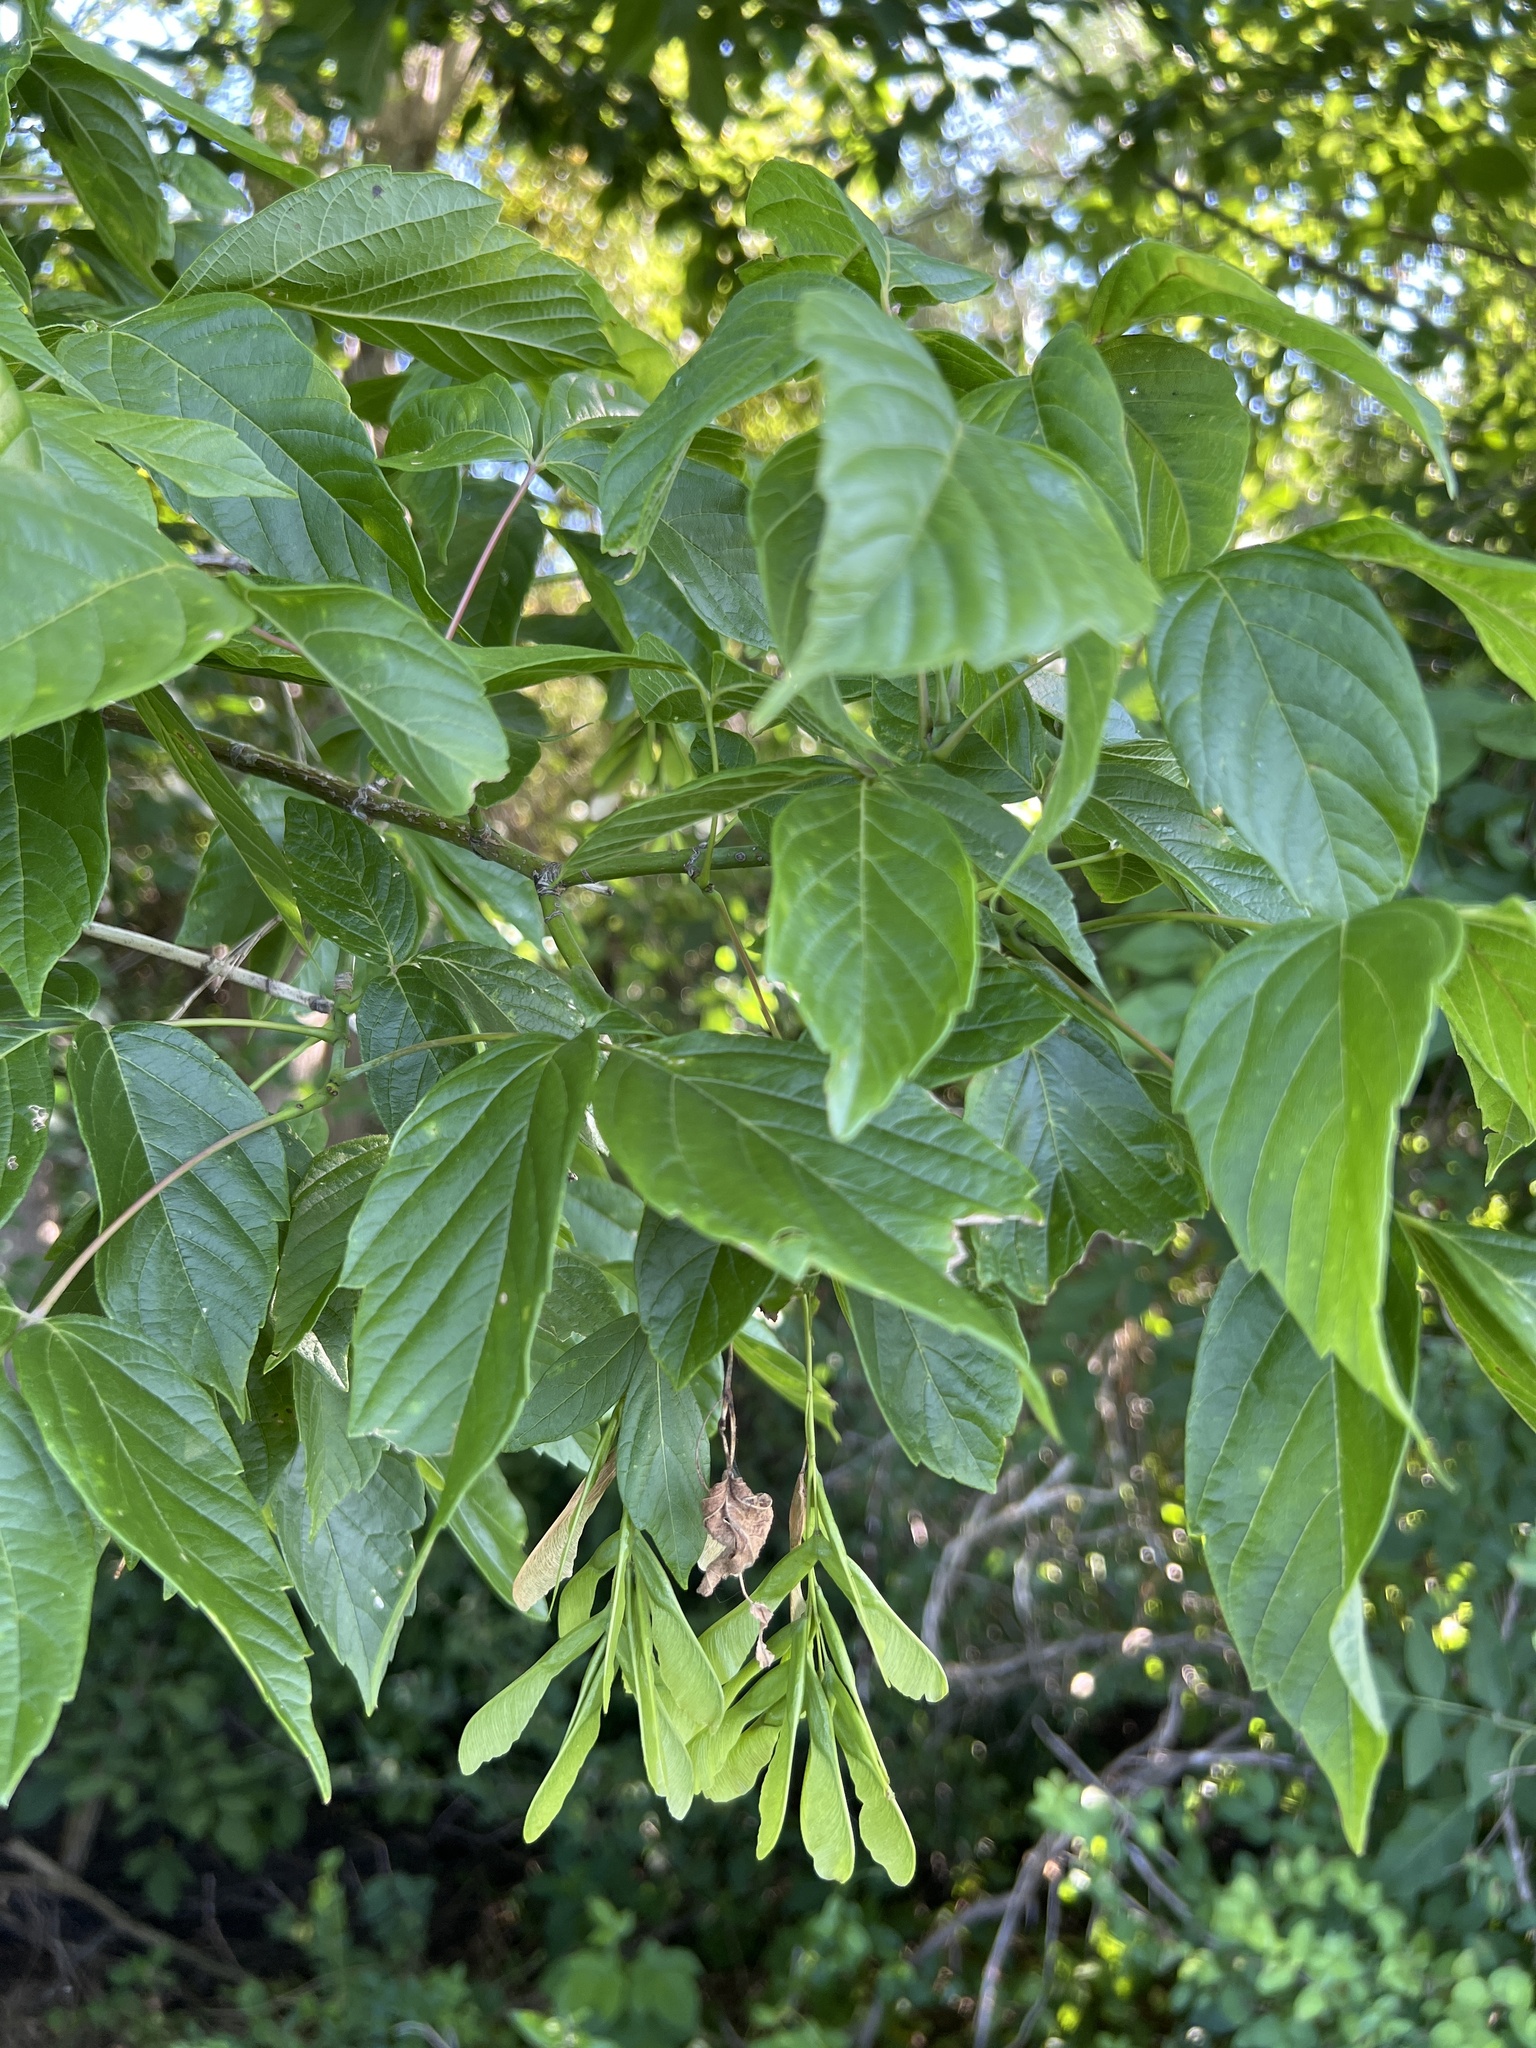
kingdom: Plantae
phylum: Tracheophyta
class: Magnoliopsida
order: Sapindales
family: Sapindaceae
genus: Acer
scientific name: Acer negundo
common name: Ashleaf maple
